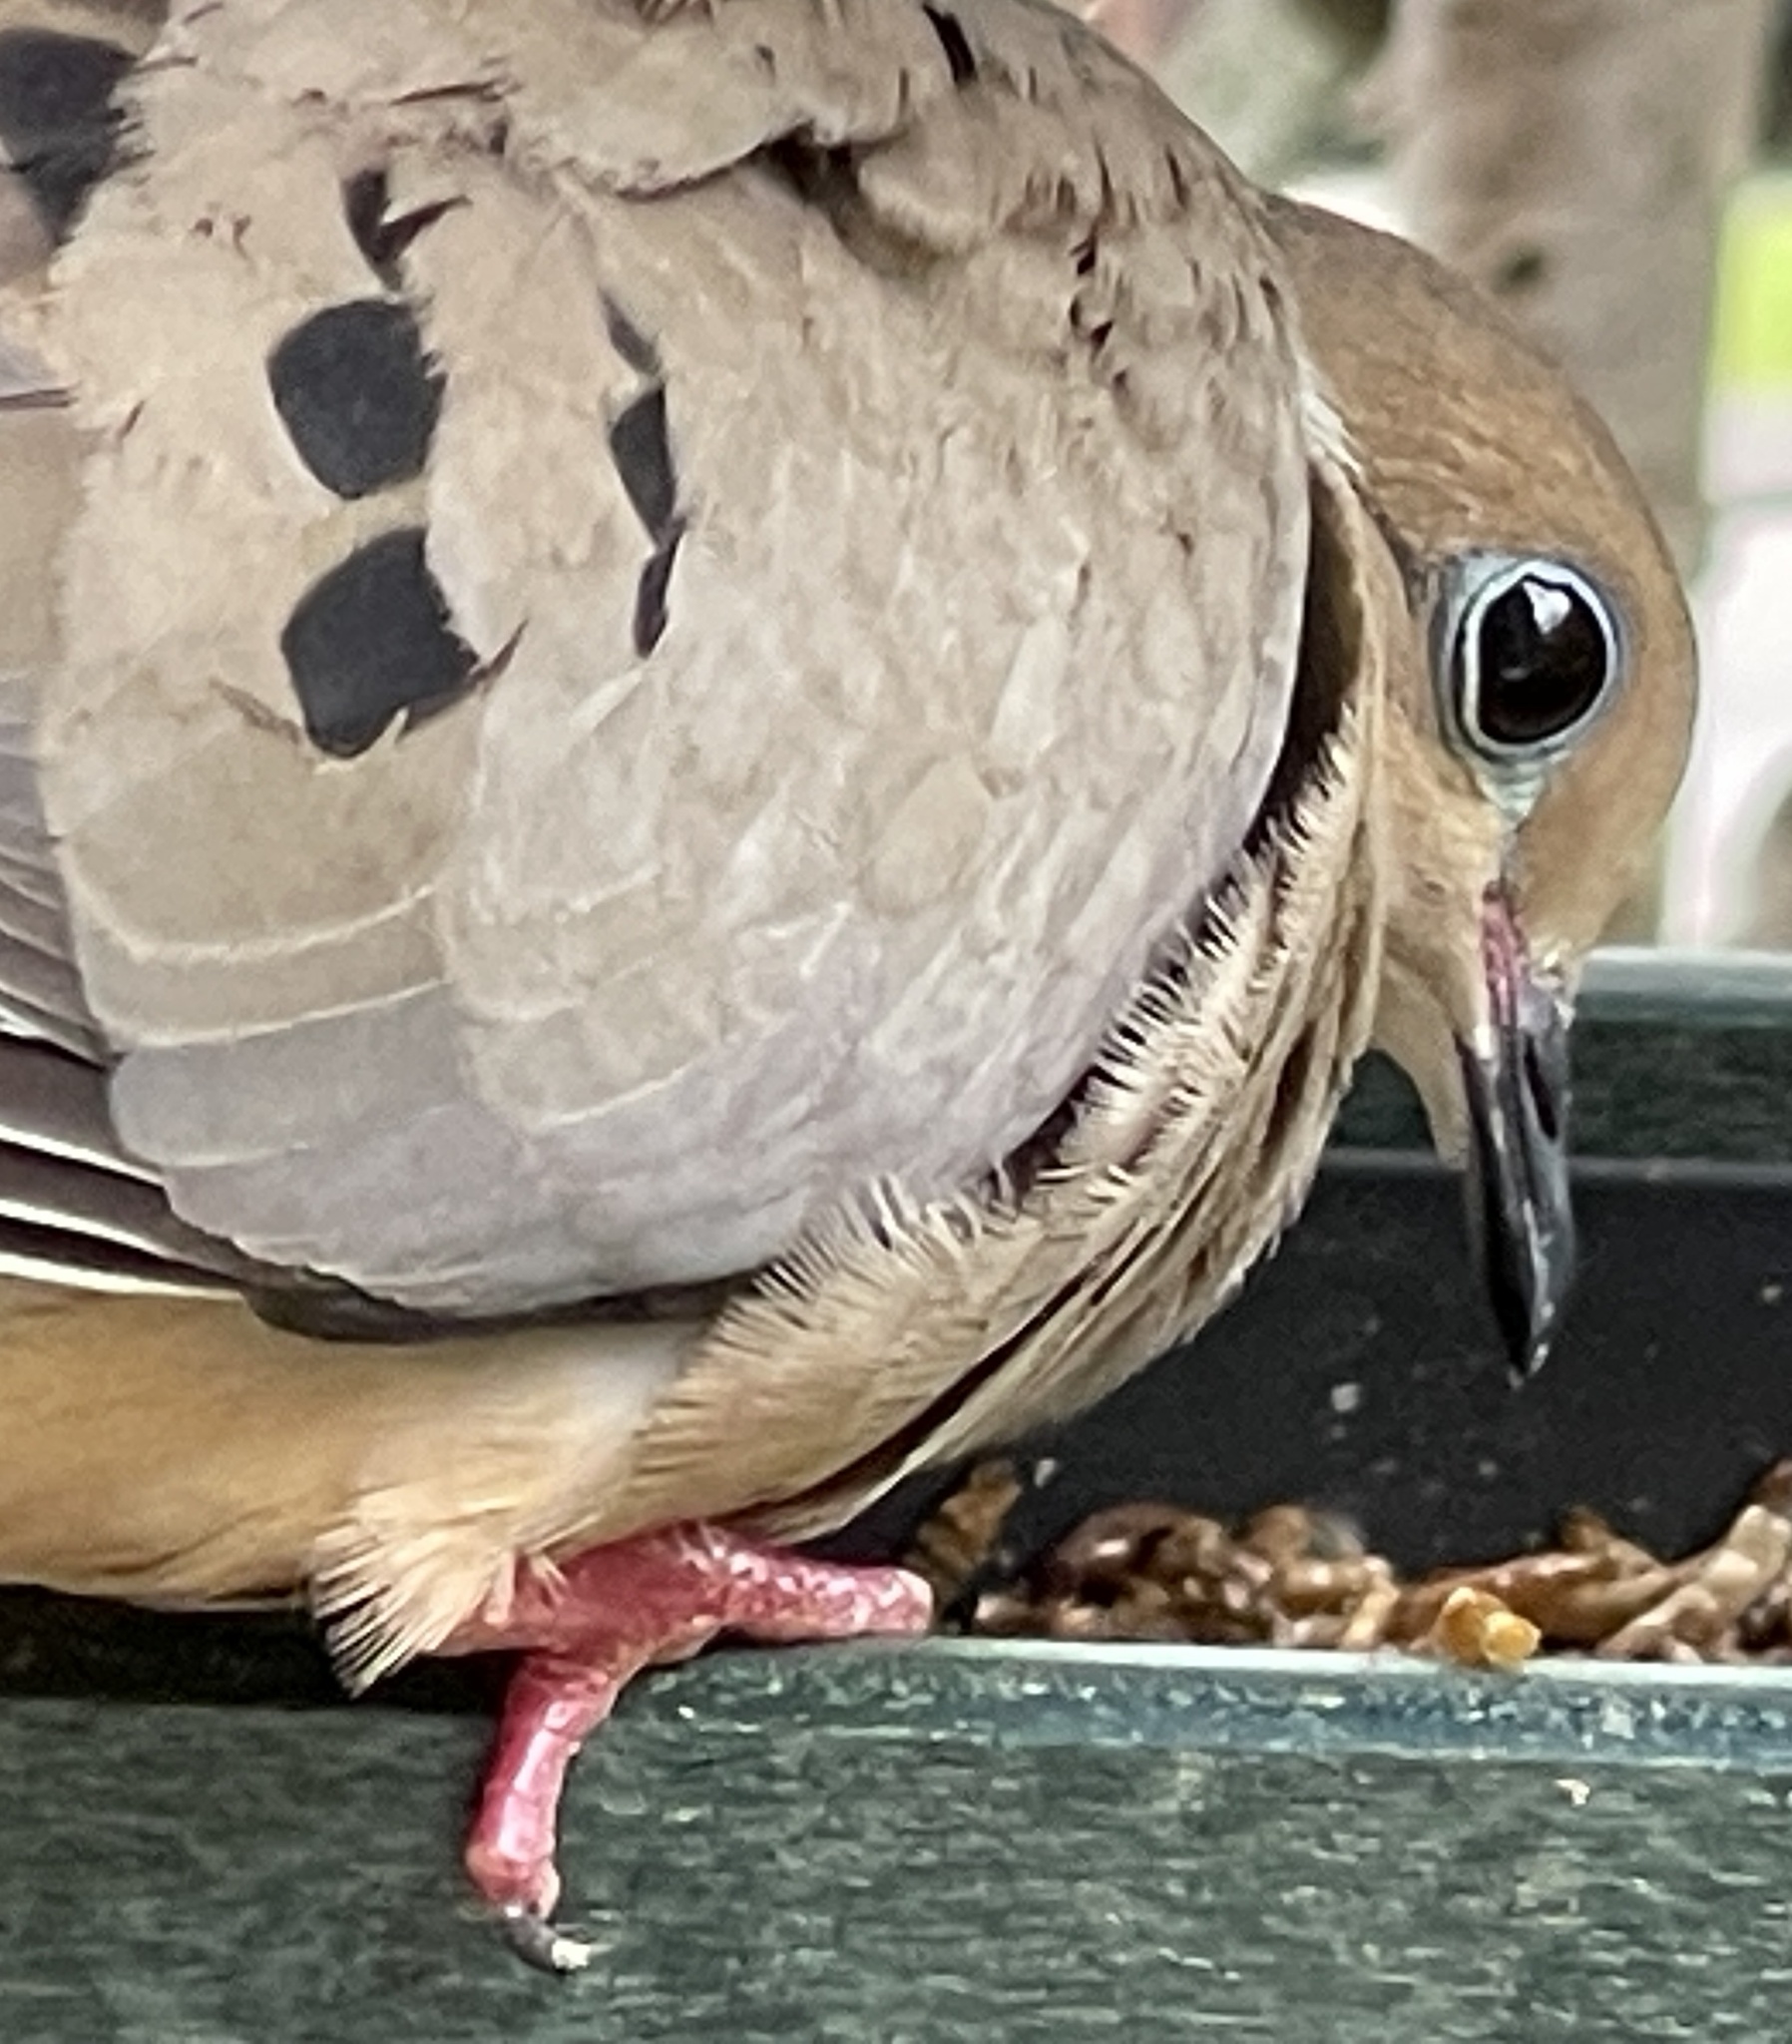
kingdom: Animalia
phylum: Chordata
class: Aves
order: Columbiformes
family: Columbidae
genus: Zenaida
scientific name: Zenaida macroura
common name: Mourning dove
